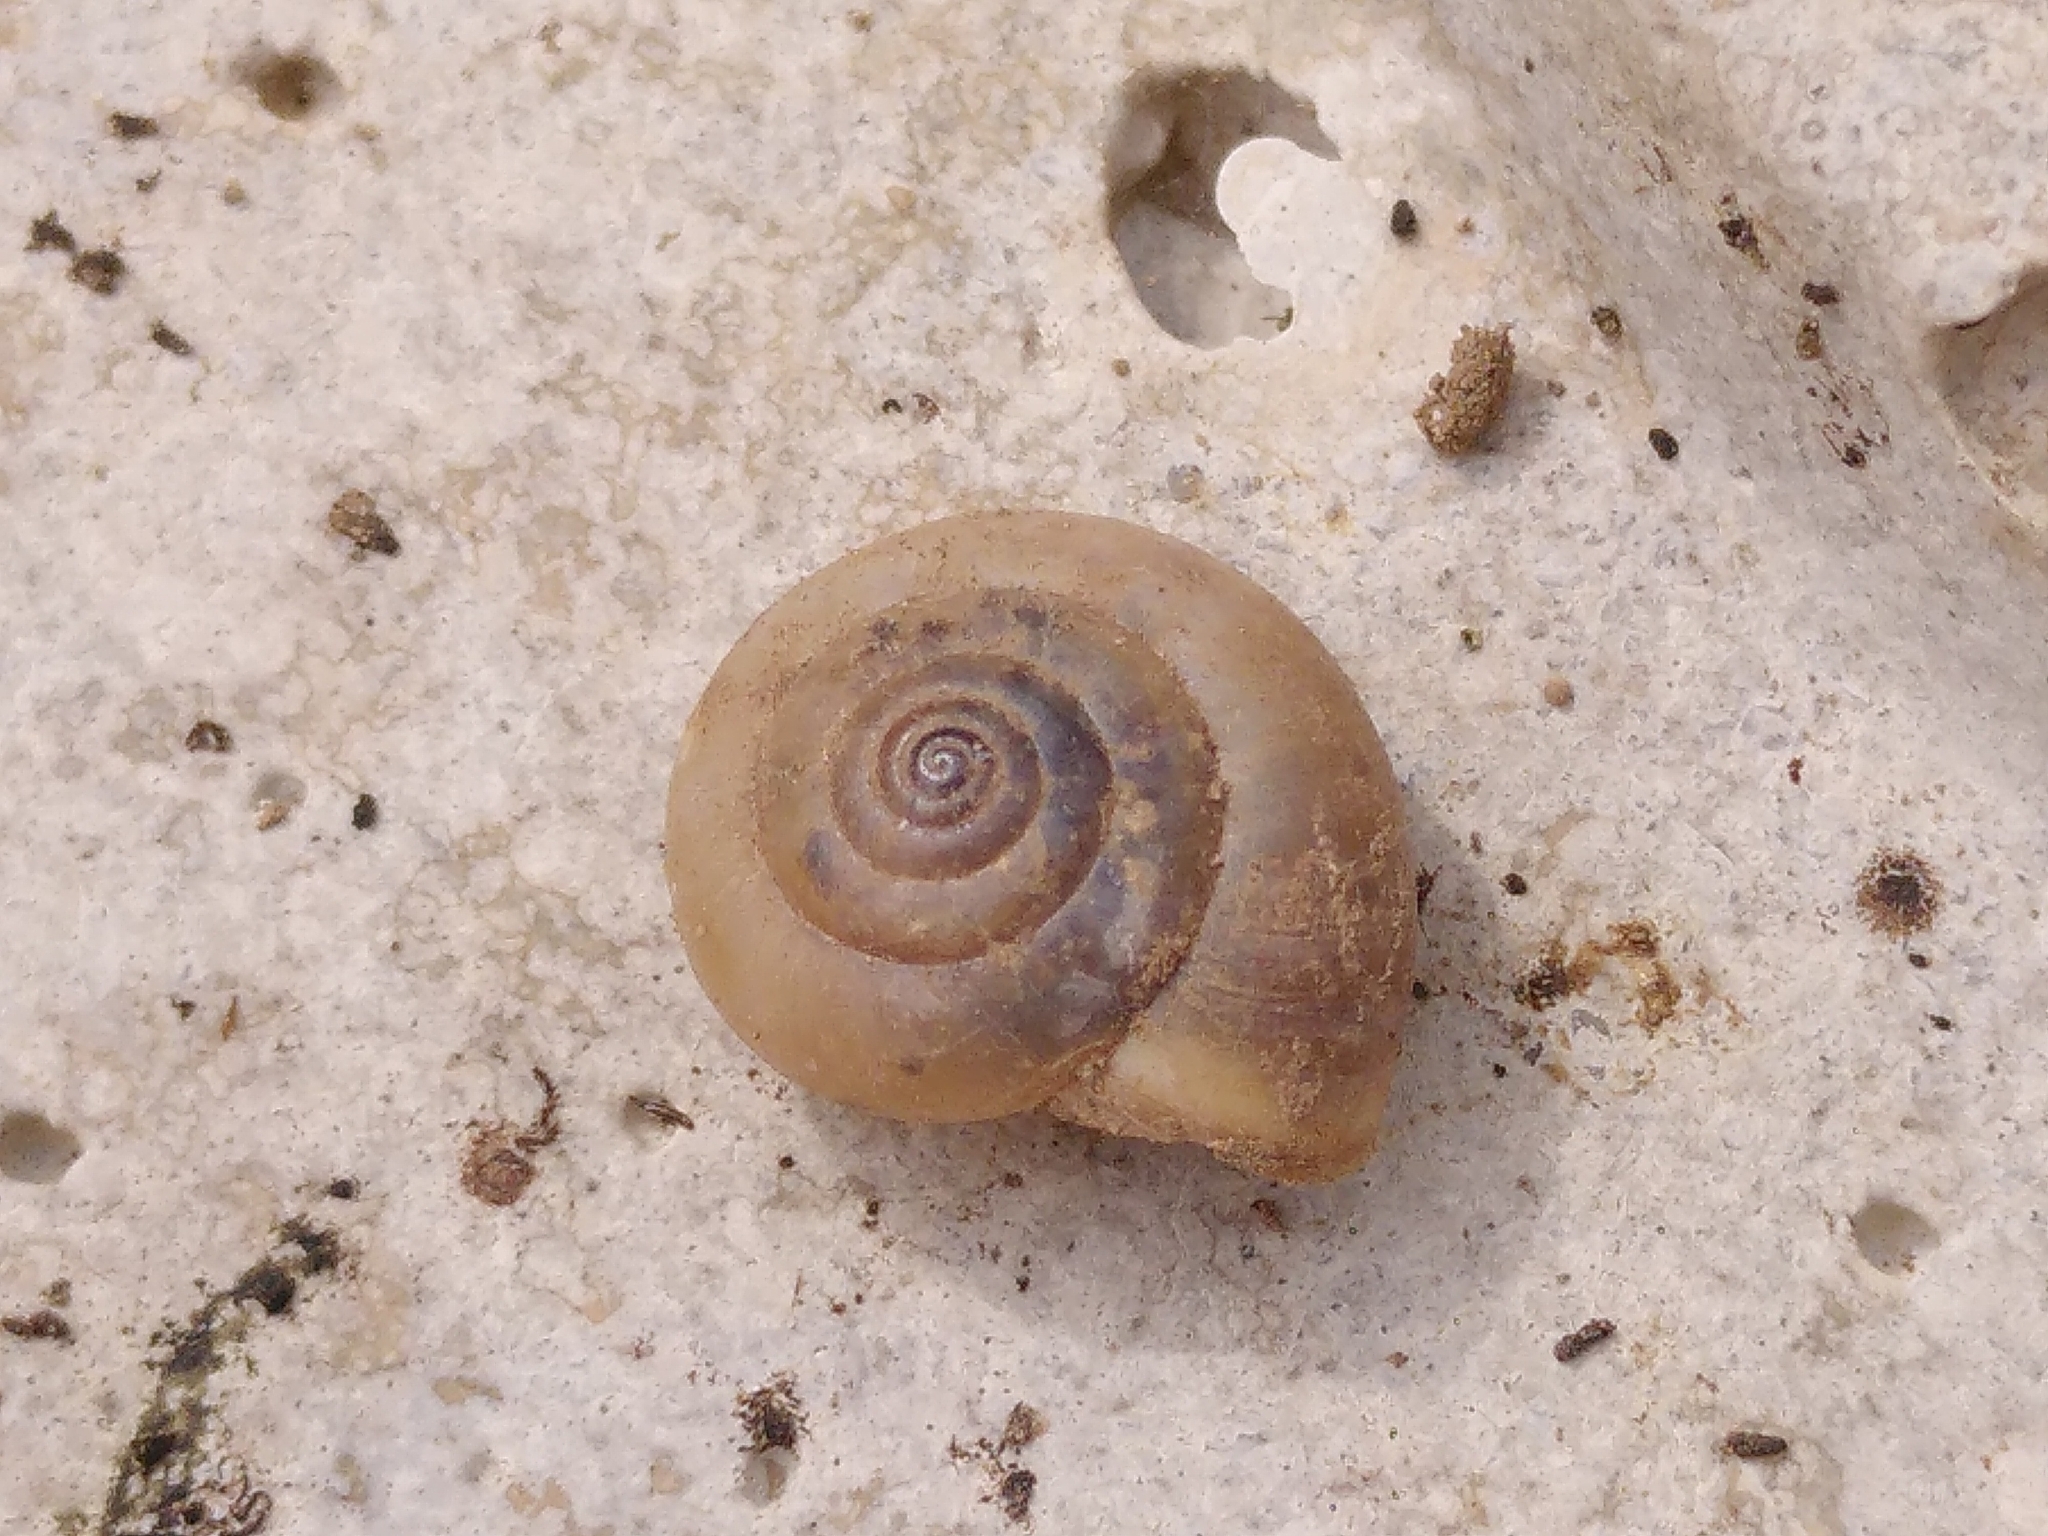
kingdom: Animalia
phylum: Mollusca
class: Gastropoda
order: Stylommatophora
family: Hygromiidae
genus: Monacha
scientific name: Monacha cartusiana
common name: Carthusian snail
